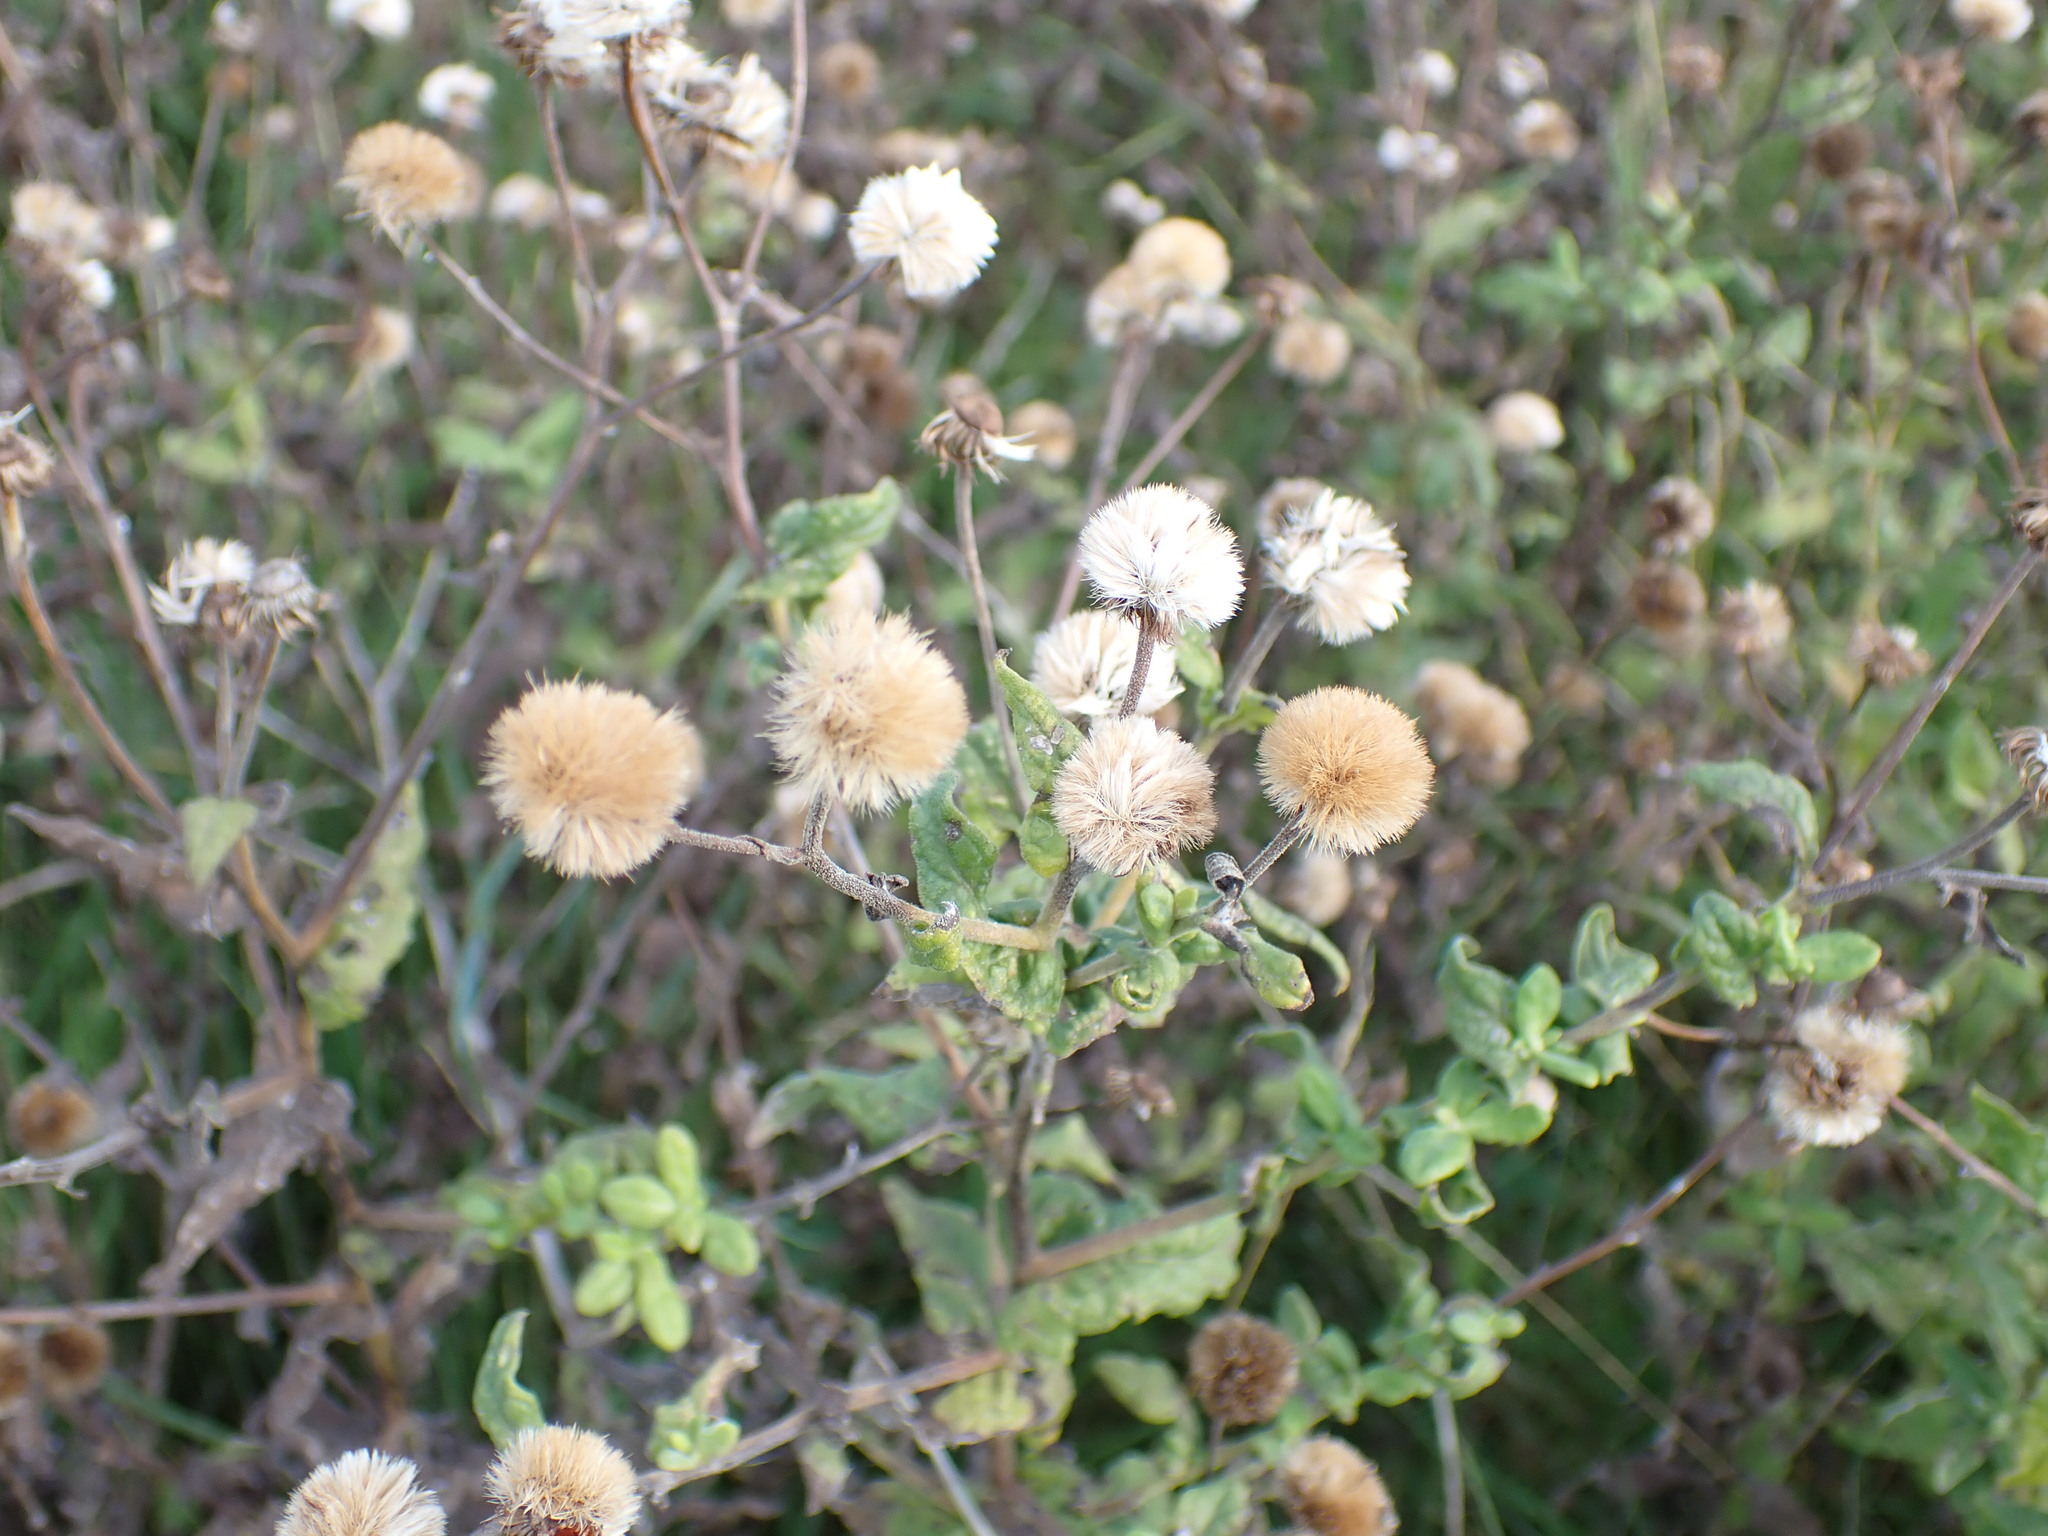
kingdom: Plantae
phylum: Tracheophyta
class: Magnoliopsida
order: Asterales
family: Asteraceae
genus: Pulicaria
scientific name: Pulicaria dysenterica
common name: Common fleabane
